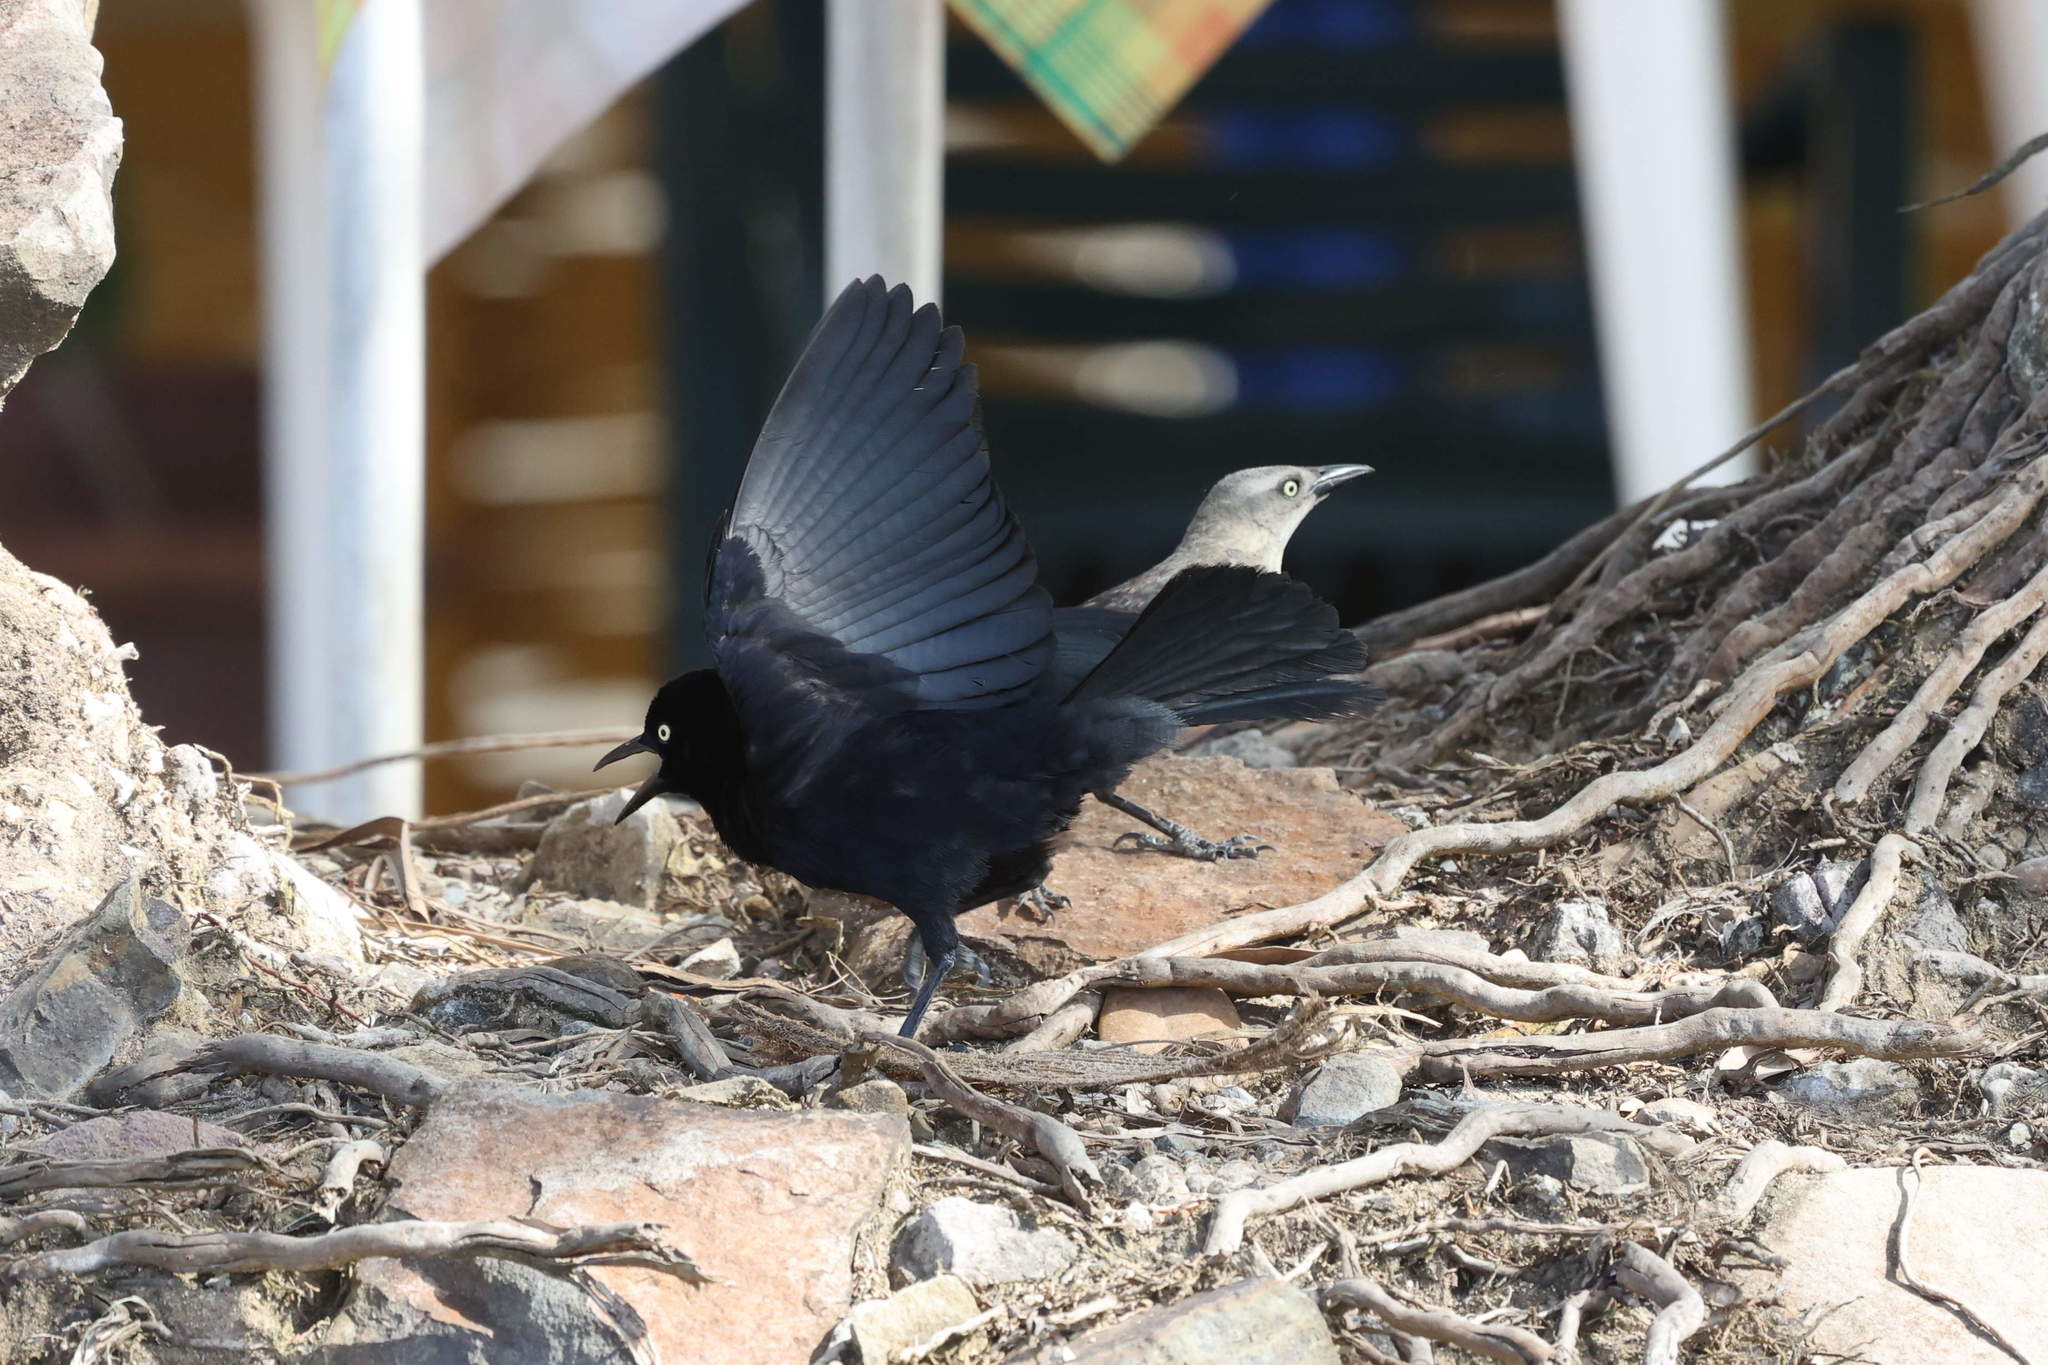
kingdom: Animalia
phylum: Chordata
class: Aves
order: Passeriformes
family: Icteridae
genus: Quiscalus
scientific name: Quiscalus lugubris
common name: Carib grackle
